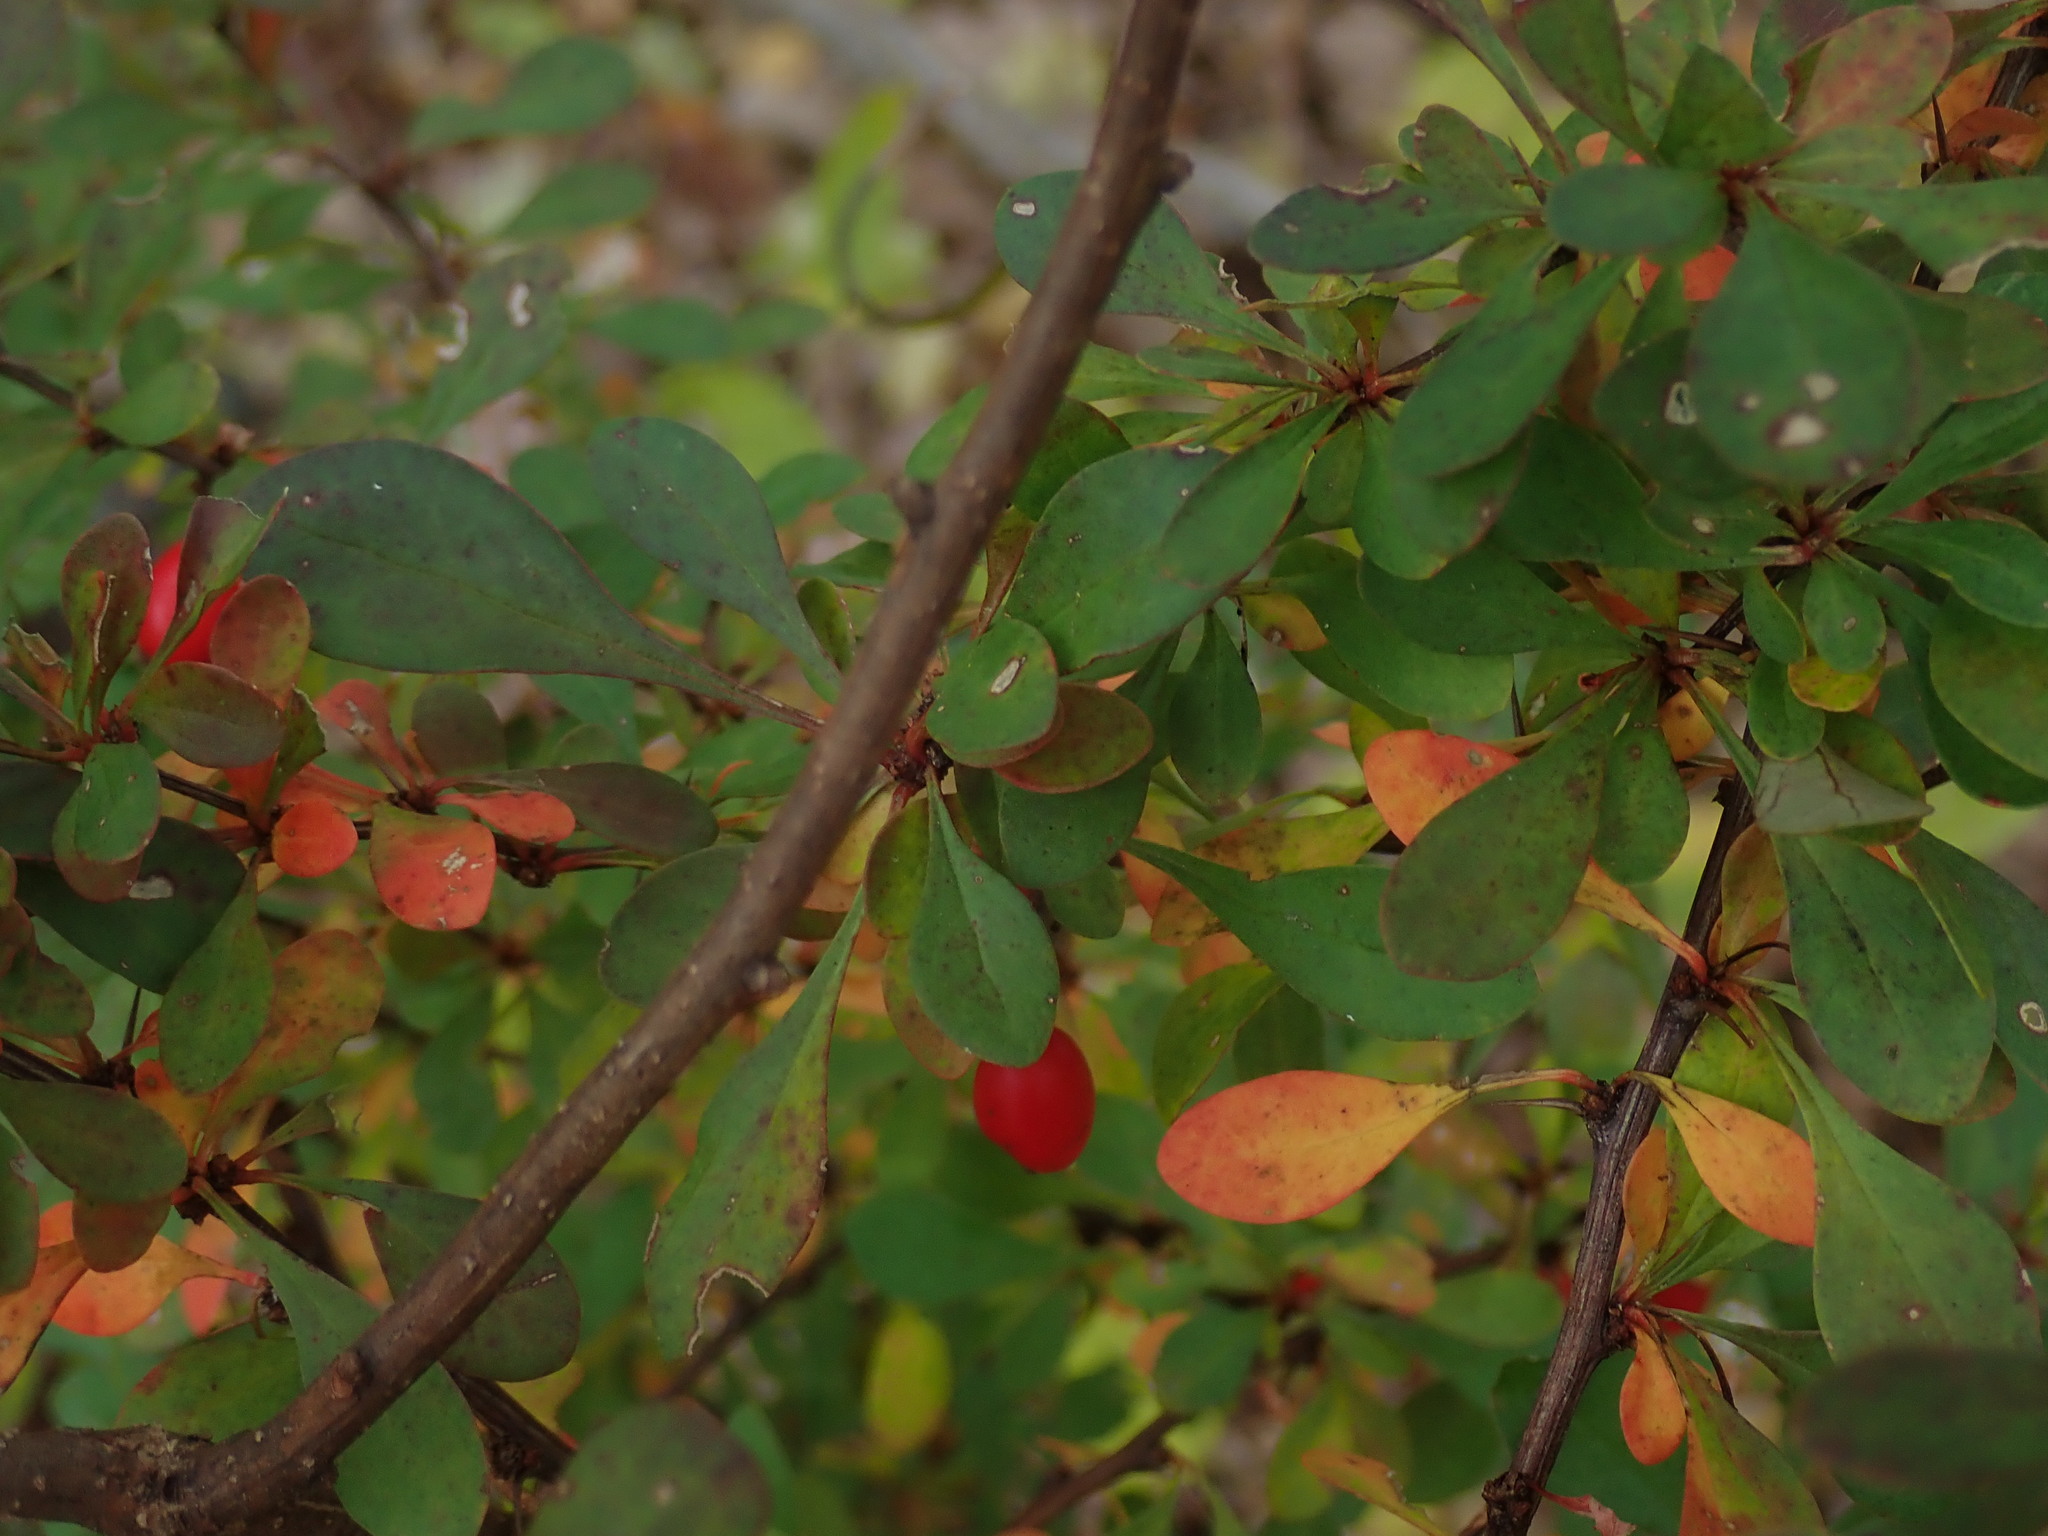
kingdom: Plantae
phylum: Tracheophyta
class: Magnoliopsida
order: Ranunculales
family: Berberidaceae
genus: Berberis
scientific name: Berberis thunbergii
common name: Japanese barberry
